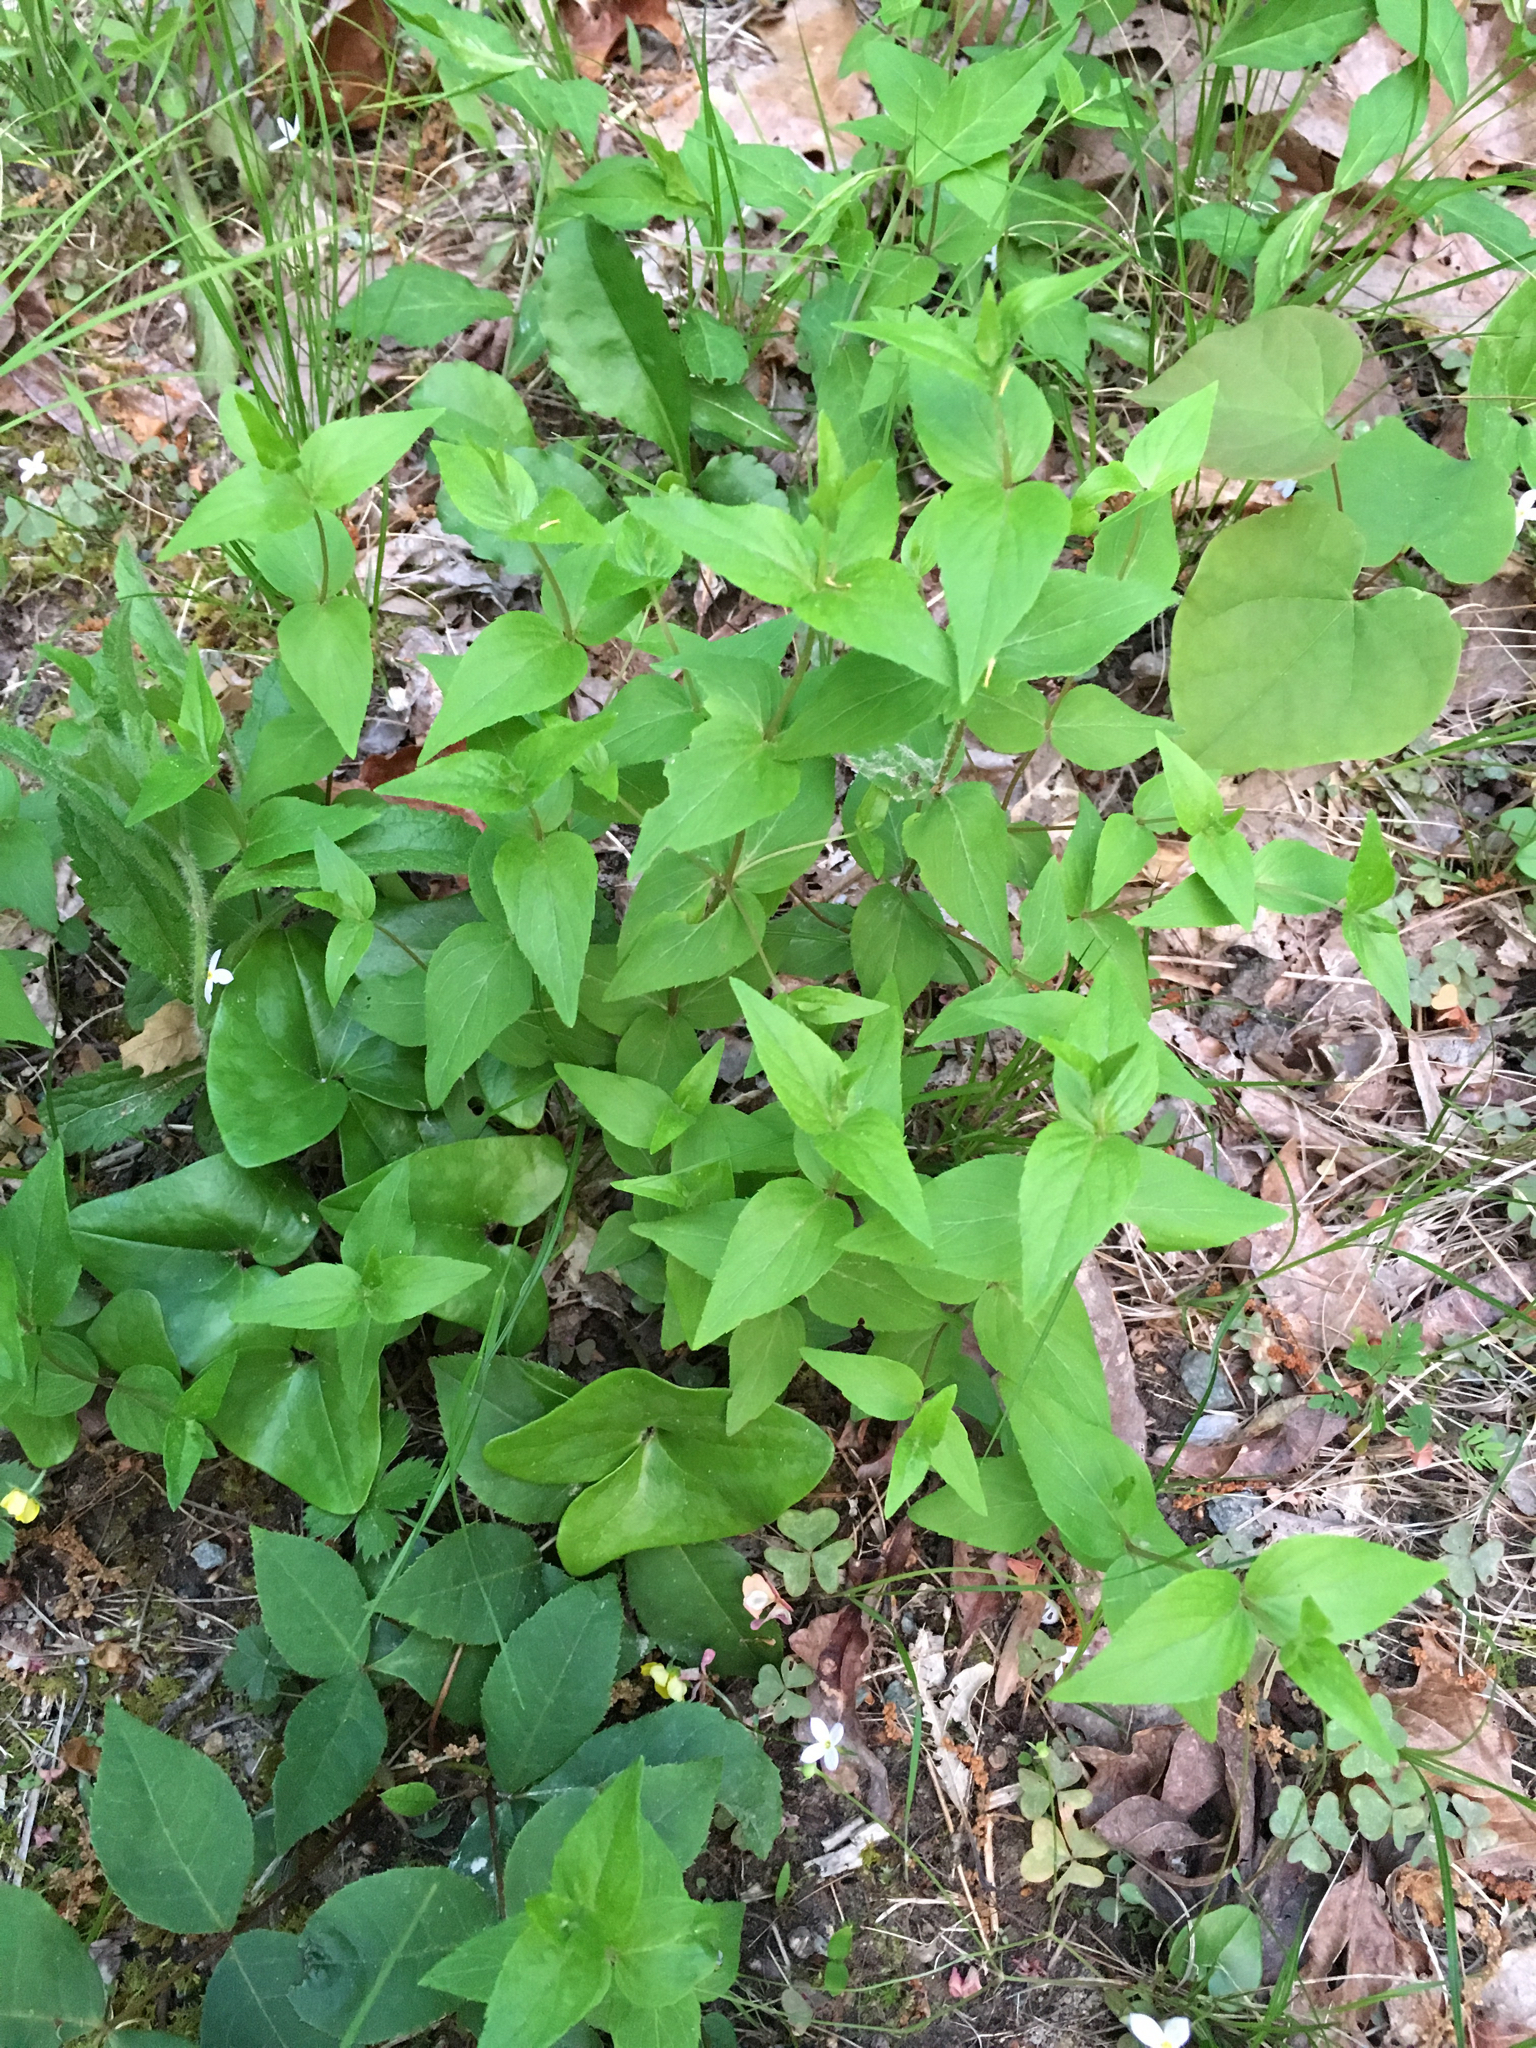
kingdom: Plantae
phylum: Tracheophyta
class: Magnoliopsida
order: Lamiales
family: Lamiaceae
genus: Cunila
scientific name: Cunila origanoides
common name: American dittany
